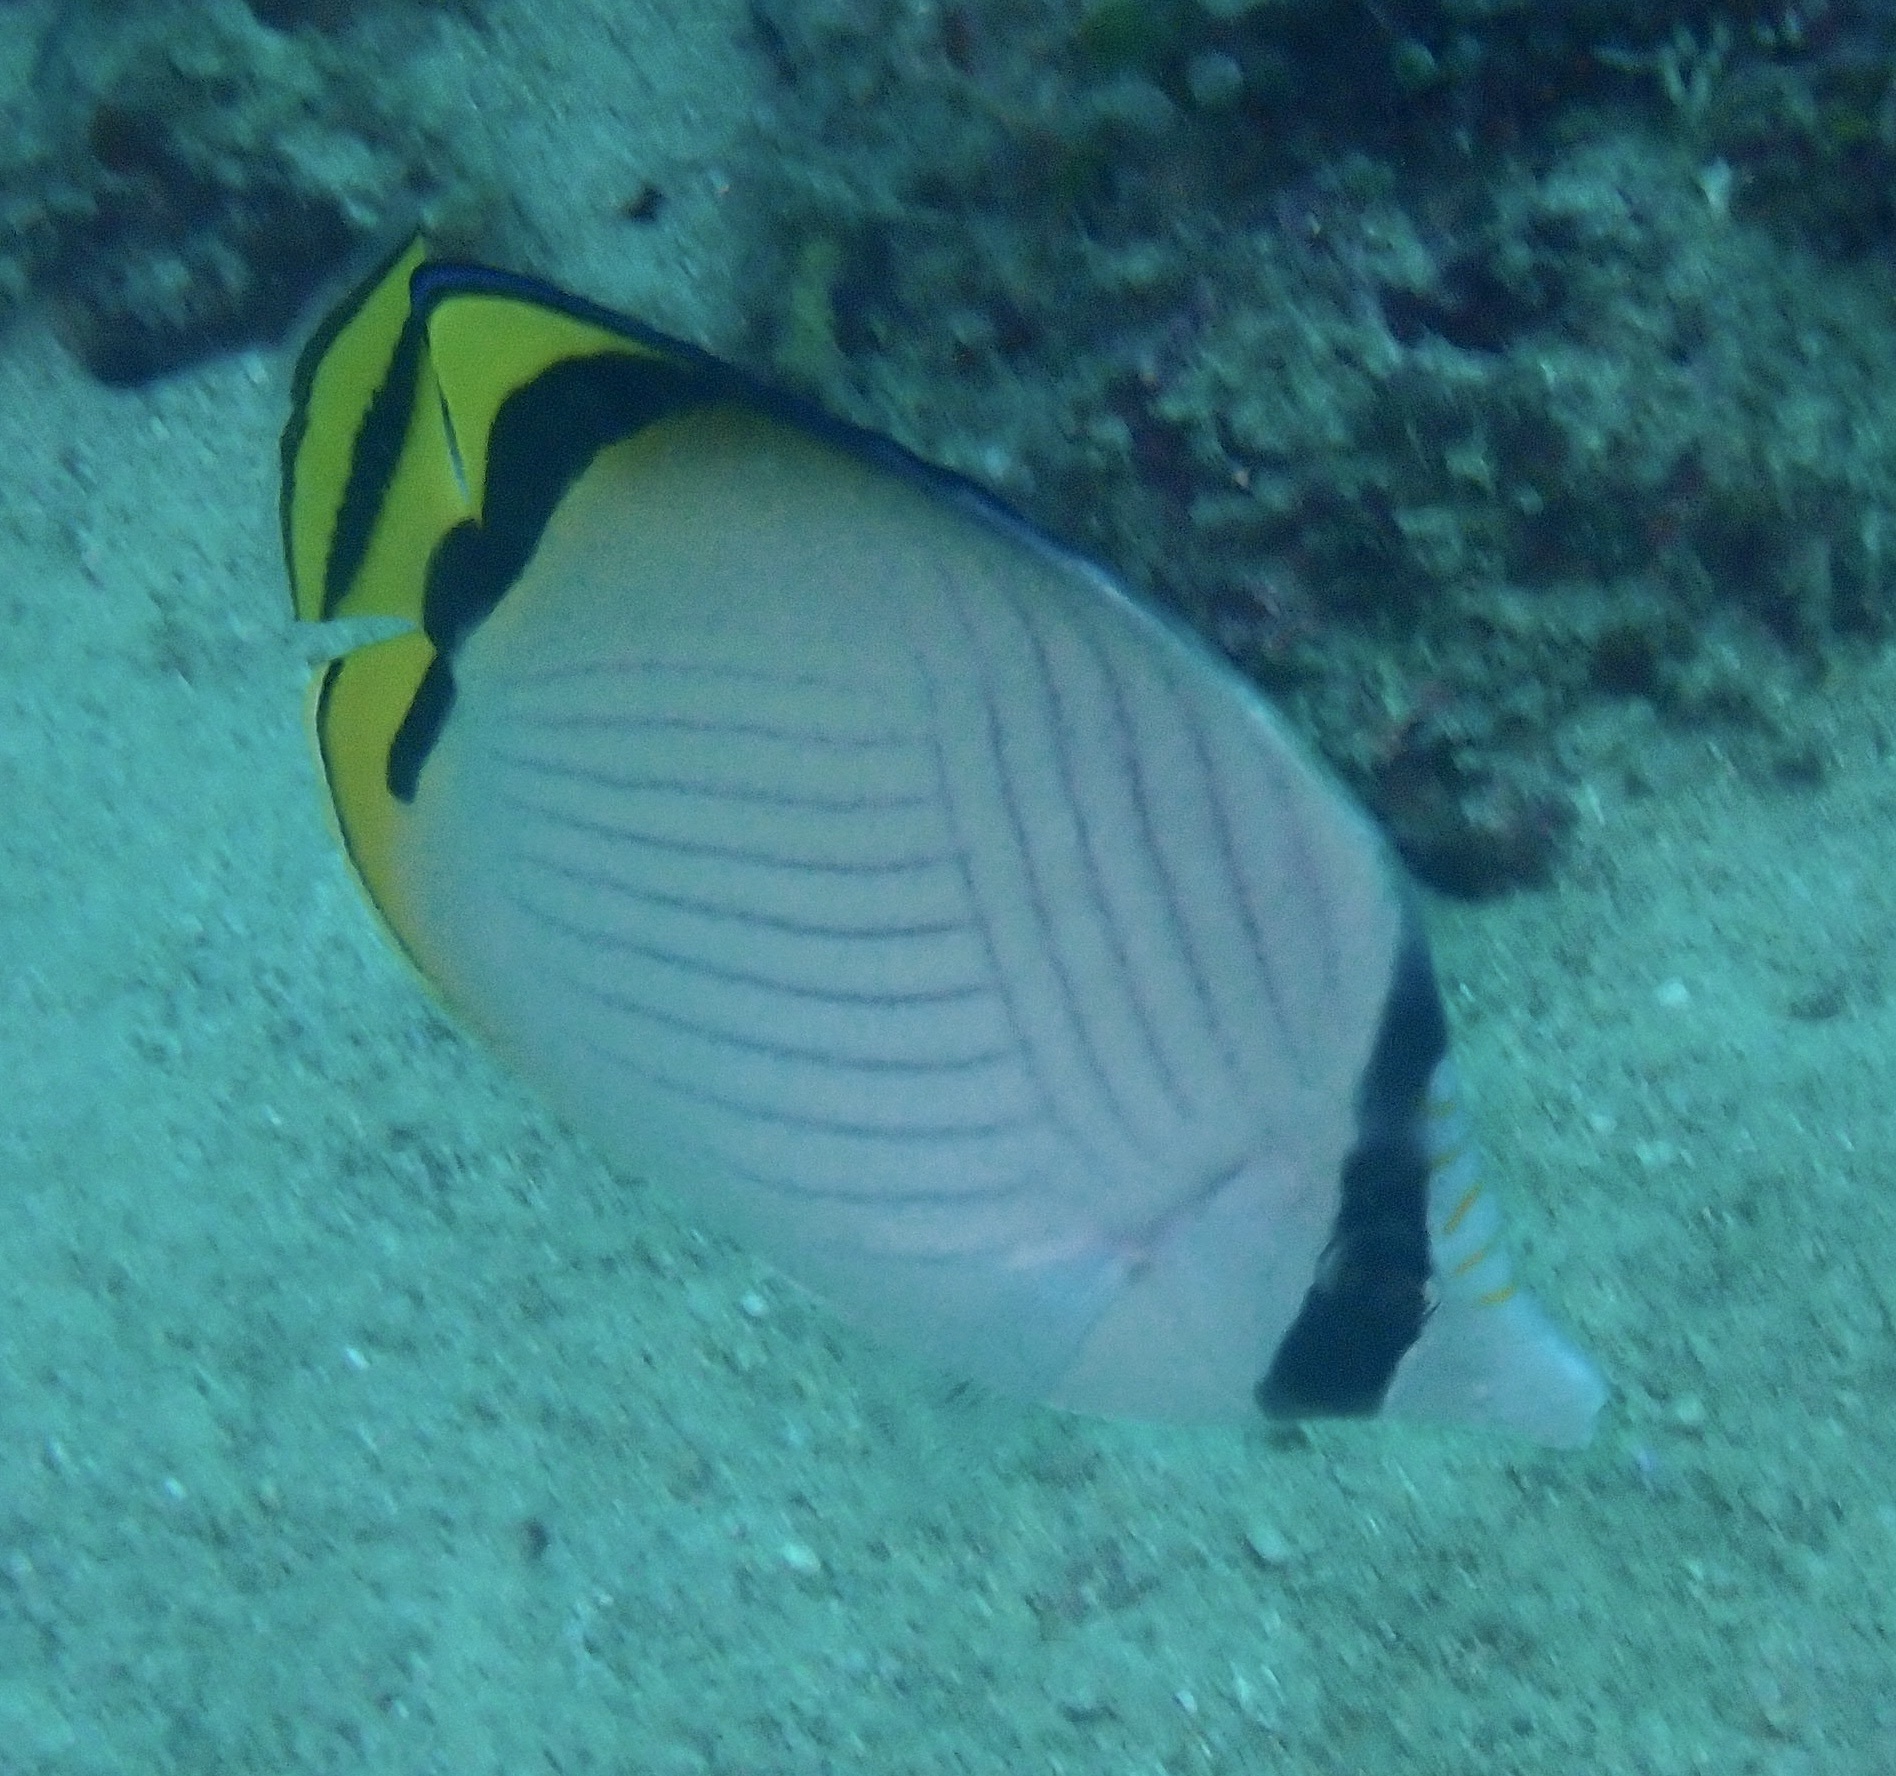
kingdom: Animalia
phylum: Chordata
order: Perciformes
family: Chaetodontidae
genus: Chaetodon
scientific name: Chaetodon vagabundus
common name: Vagabond butterflyfish
